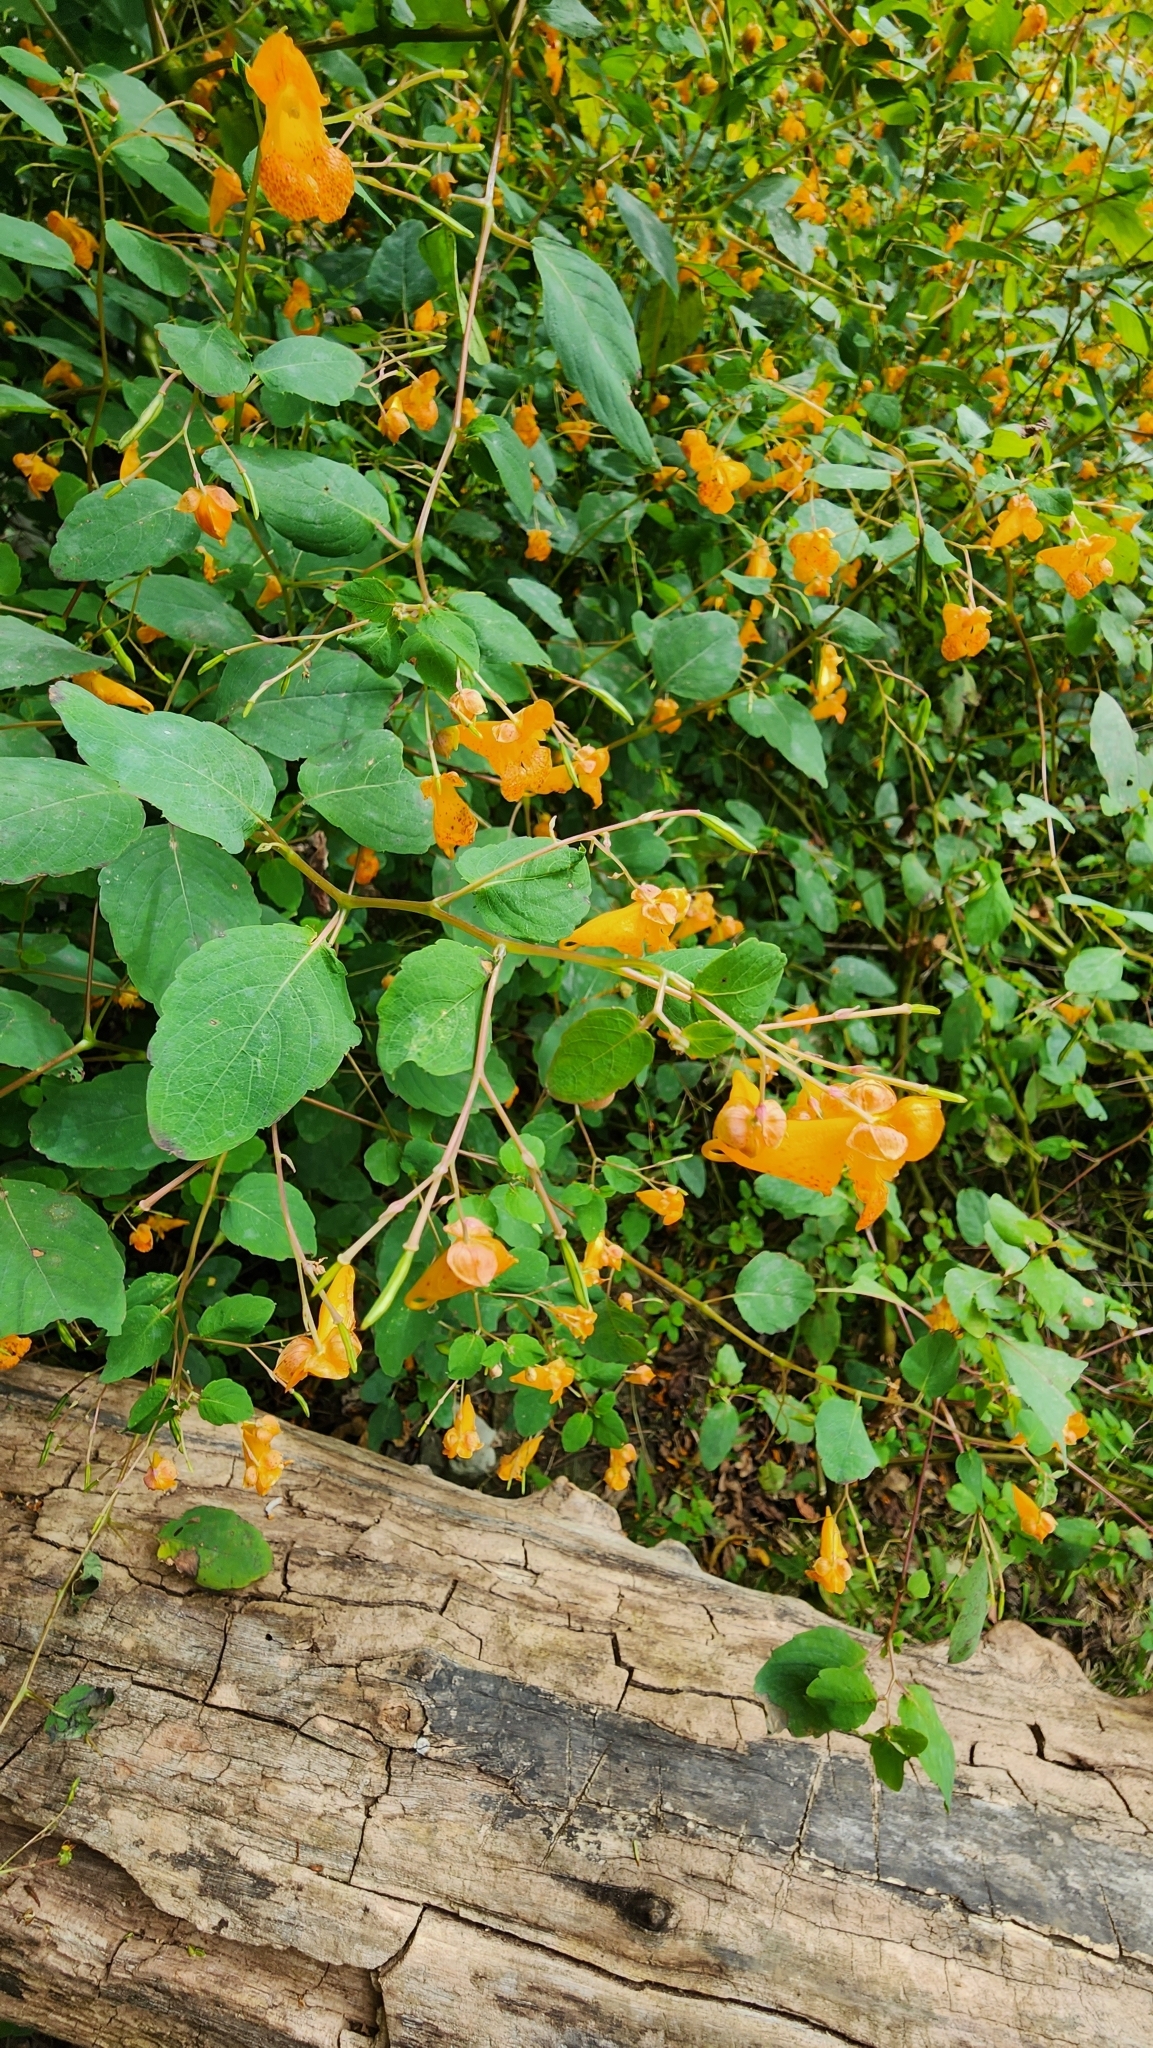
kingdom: Plantae
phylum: Tracheophyta
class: Magnoliopsida
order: Ericales
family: Balsaminaceae
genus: Impatiens
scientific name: Impatiens capensis
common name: Orange balsam
